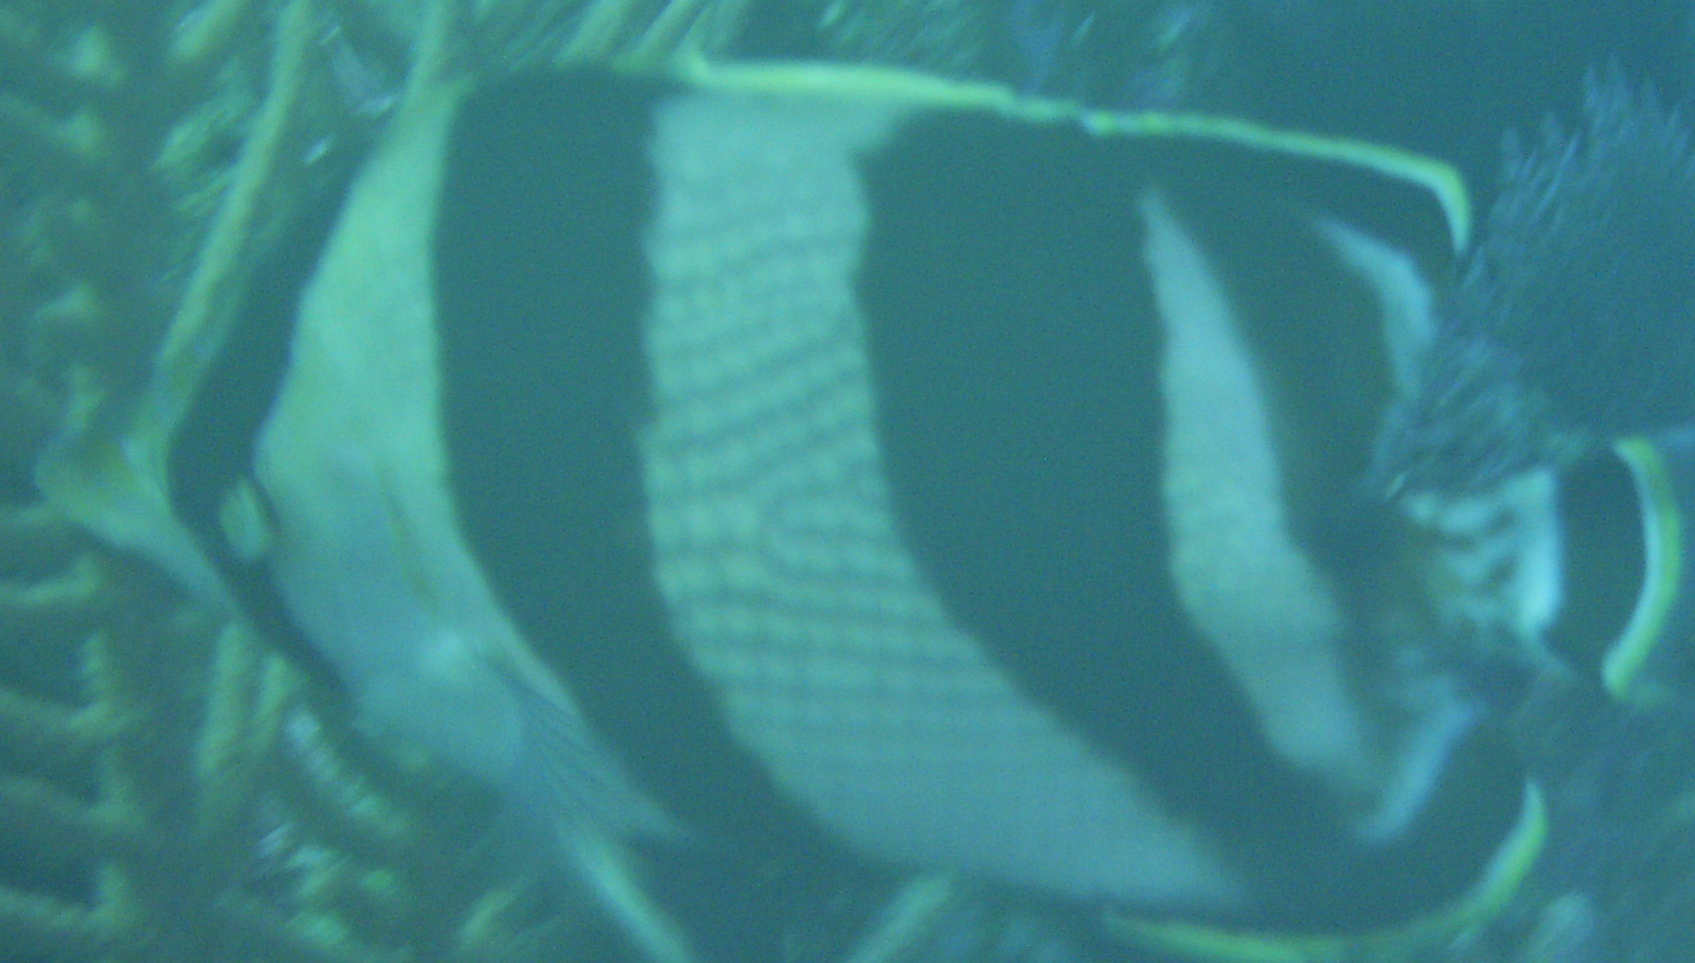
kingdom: Animalia
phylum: Chordata
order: Perciformes
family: Chaetodontidae
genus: Chaetodon
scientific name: Chaetodon striatus
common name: Banded butterflyfish
